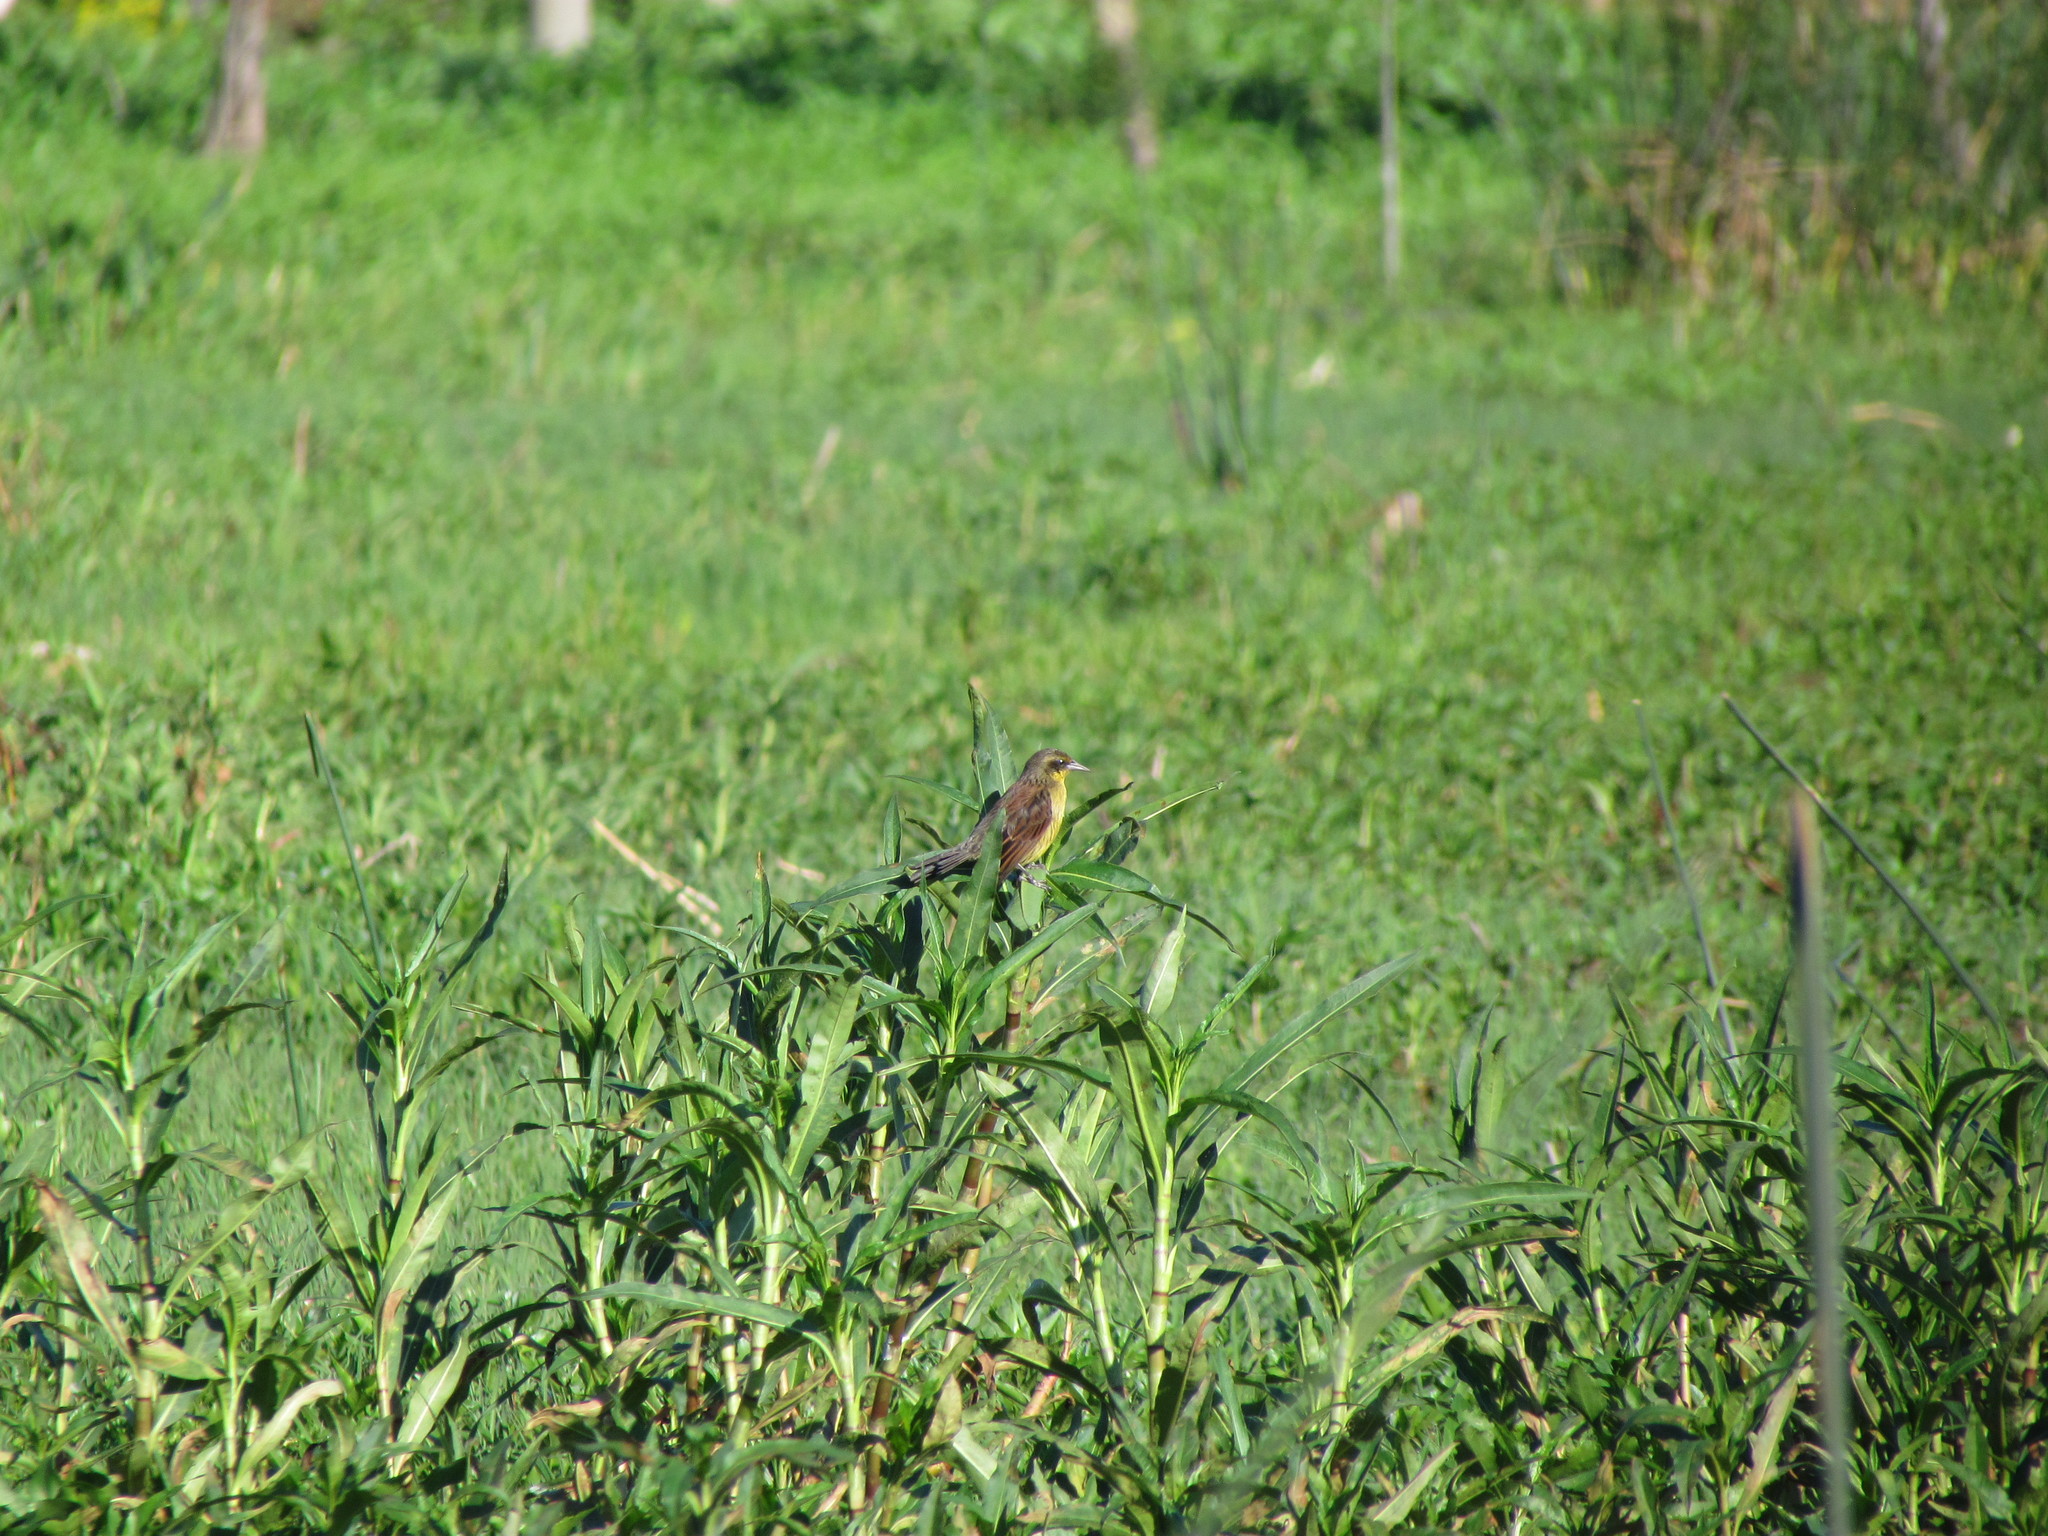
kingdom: Animalia
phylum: Chordata
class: Aves
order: Passeriformes
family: Icteridae
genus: Agelasticus
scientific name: Agelasticus cyanopus
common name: Unicolored blackbird
